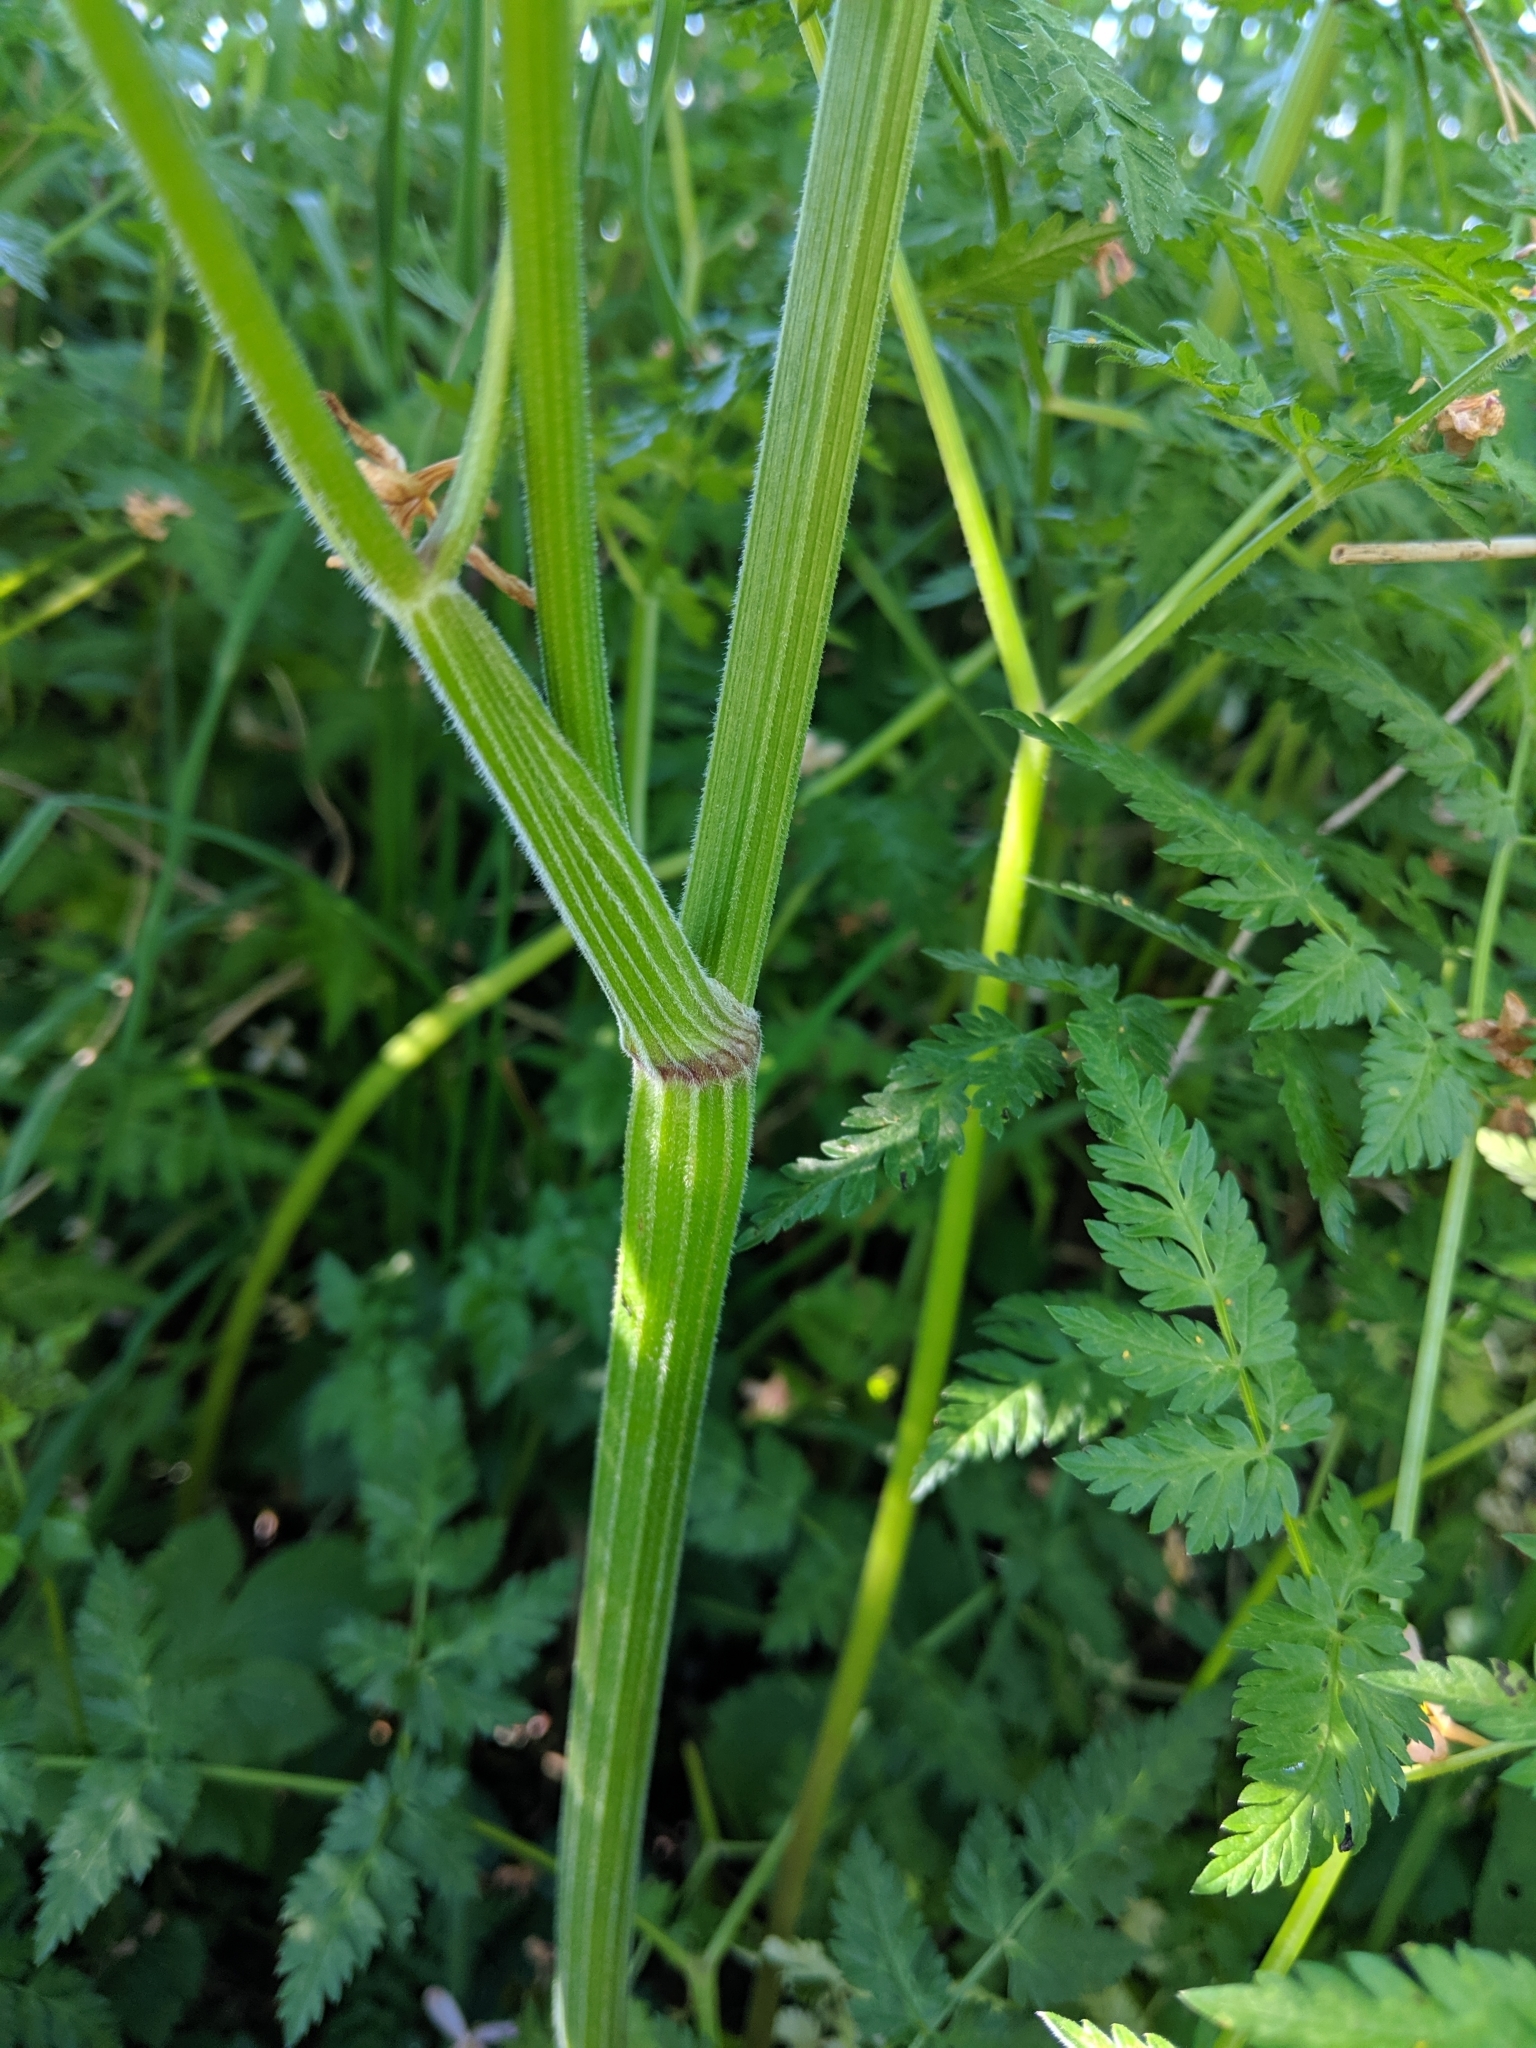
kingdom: Plantae
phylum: Tracheophyta
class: Magnoliopsida
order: Apiales
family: Apiaceae
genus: Anthriscus
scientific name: Anthriscus sylvestris
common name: Cow parsley
